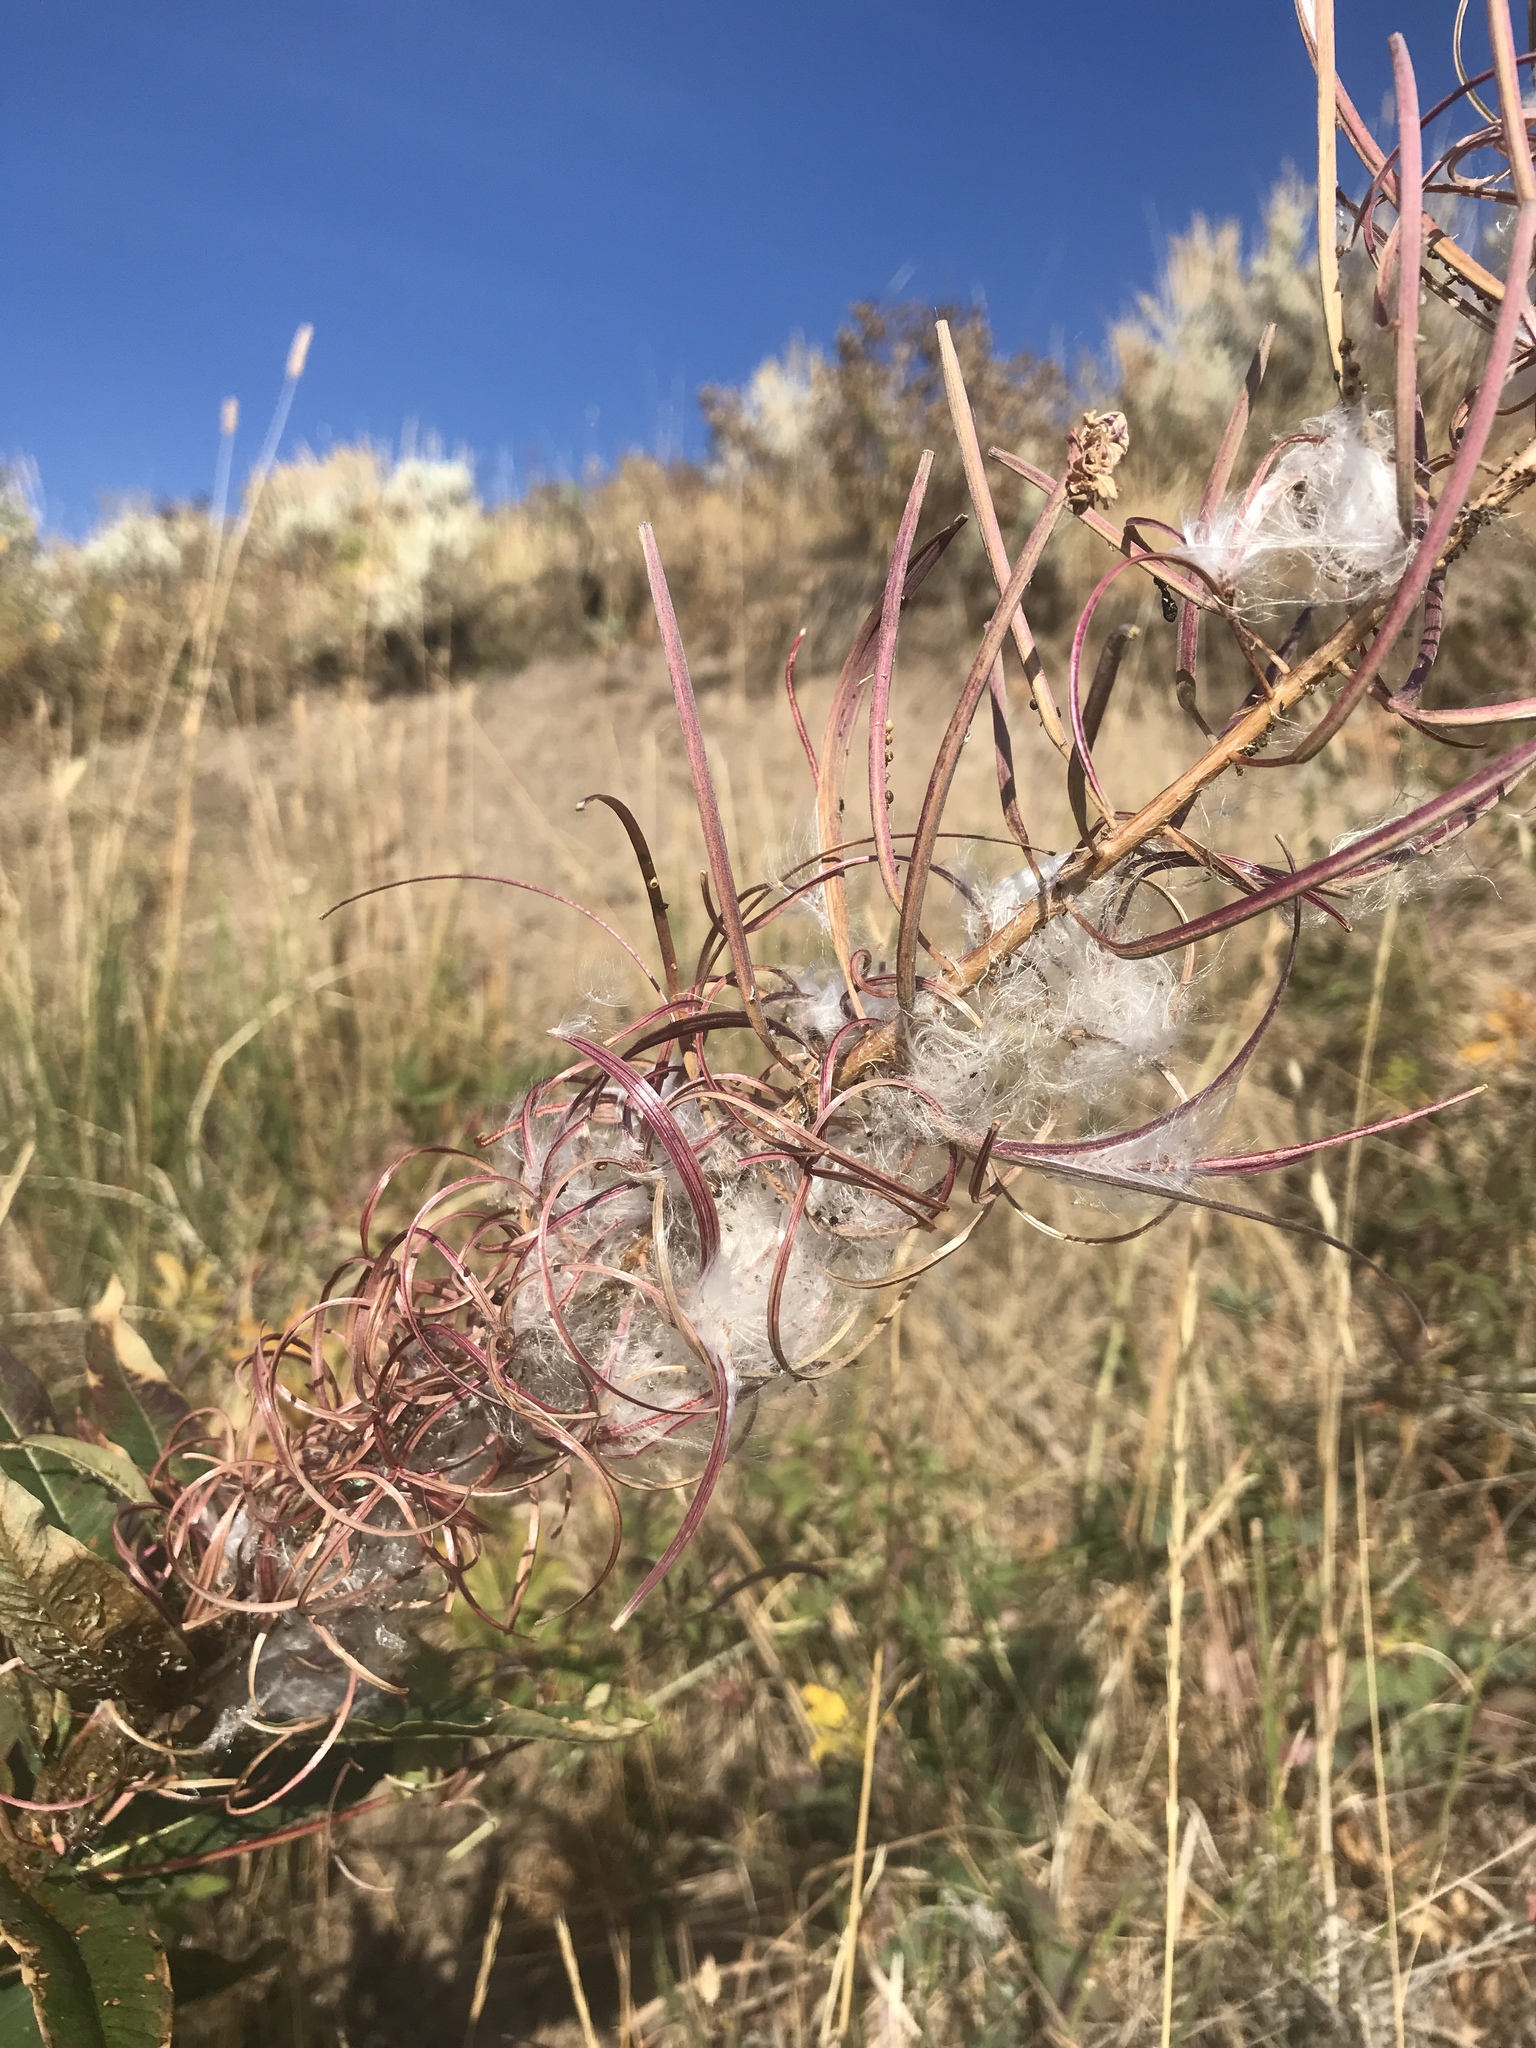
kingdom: Plantae
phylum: Tracheophyta
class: Magnoliopsida
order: Myrtales
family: Onagraceae
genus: Chamaenerion
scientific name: Chamaenerion angustifolium
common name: Fireweed
